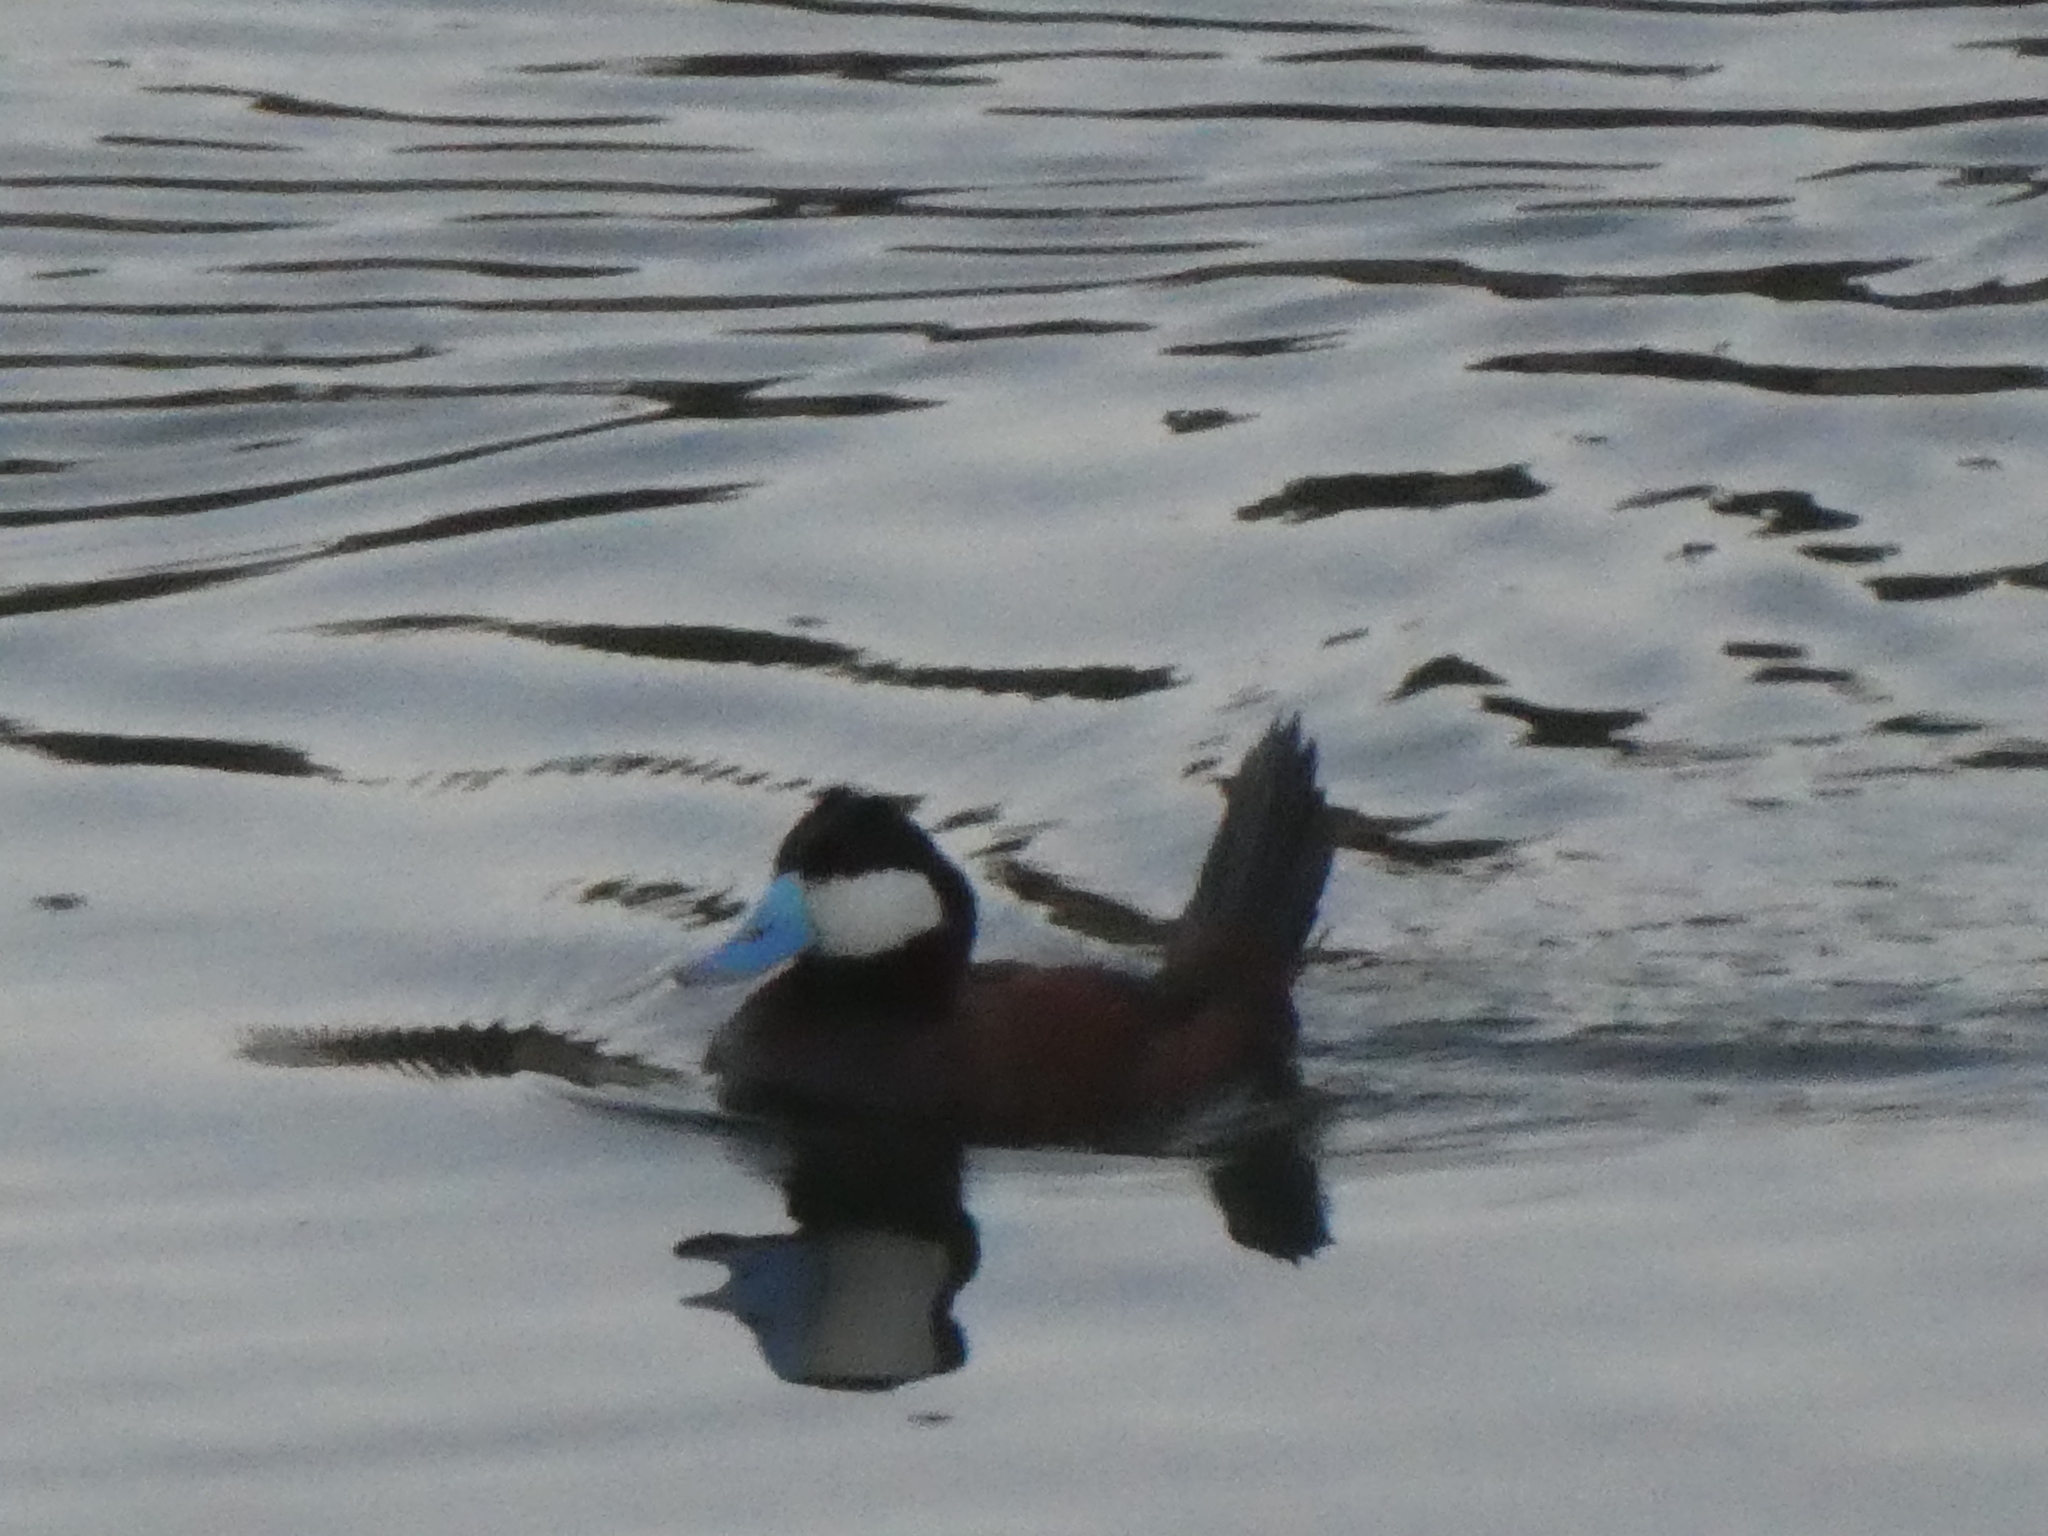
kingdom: Animalia
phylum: Chordata
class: Aves
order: Anseriformes
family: Anatidae
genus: Oxyura
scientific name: Oxyura jamaicensis
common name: Ruddy duck
